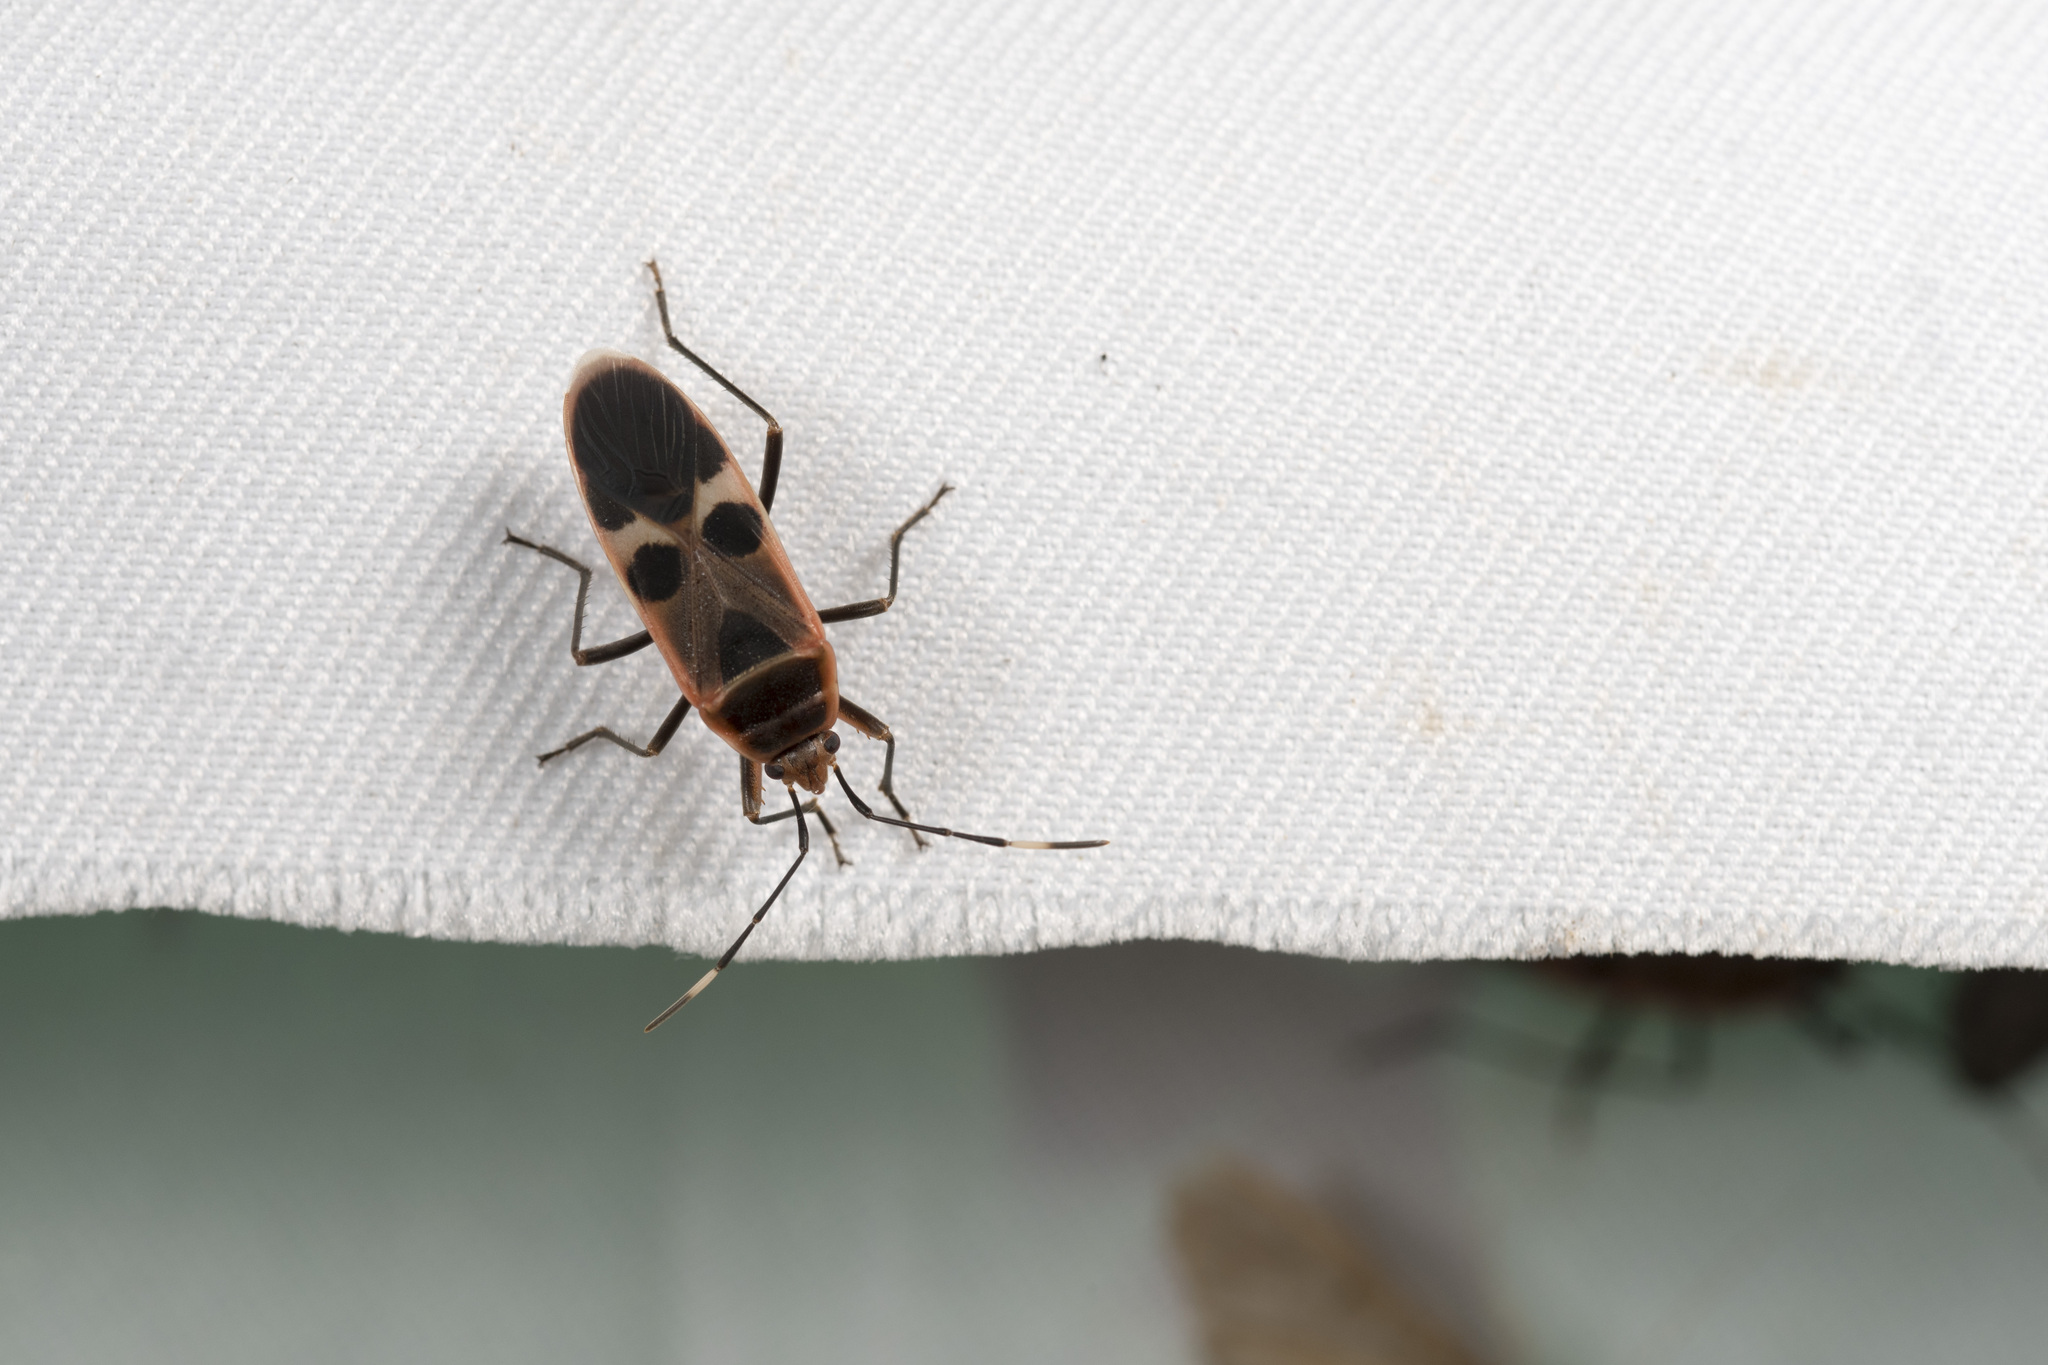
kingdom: Animalia
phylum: Arthropoda
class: Insecta
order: Hemiptera
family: Largidae
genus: Physopelta
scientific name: Physopelta gutta
